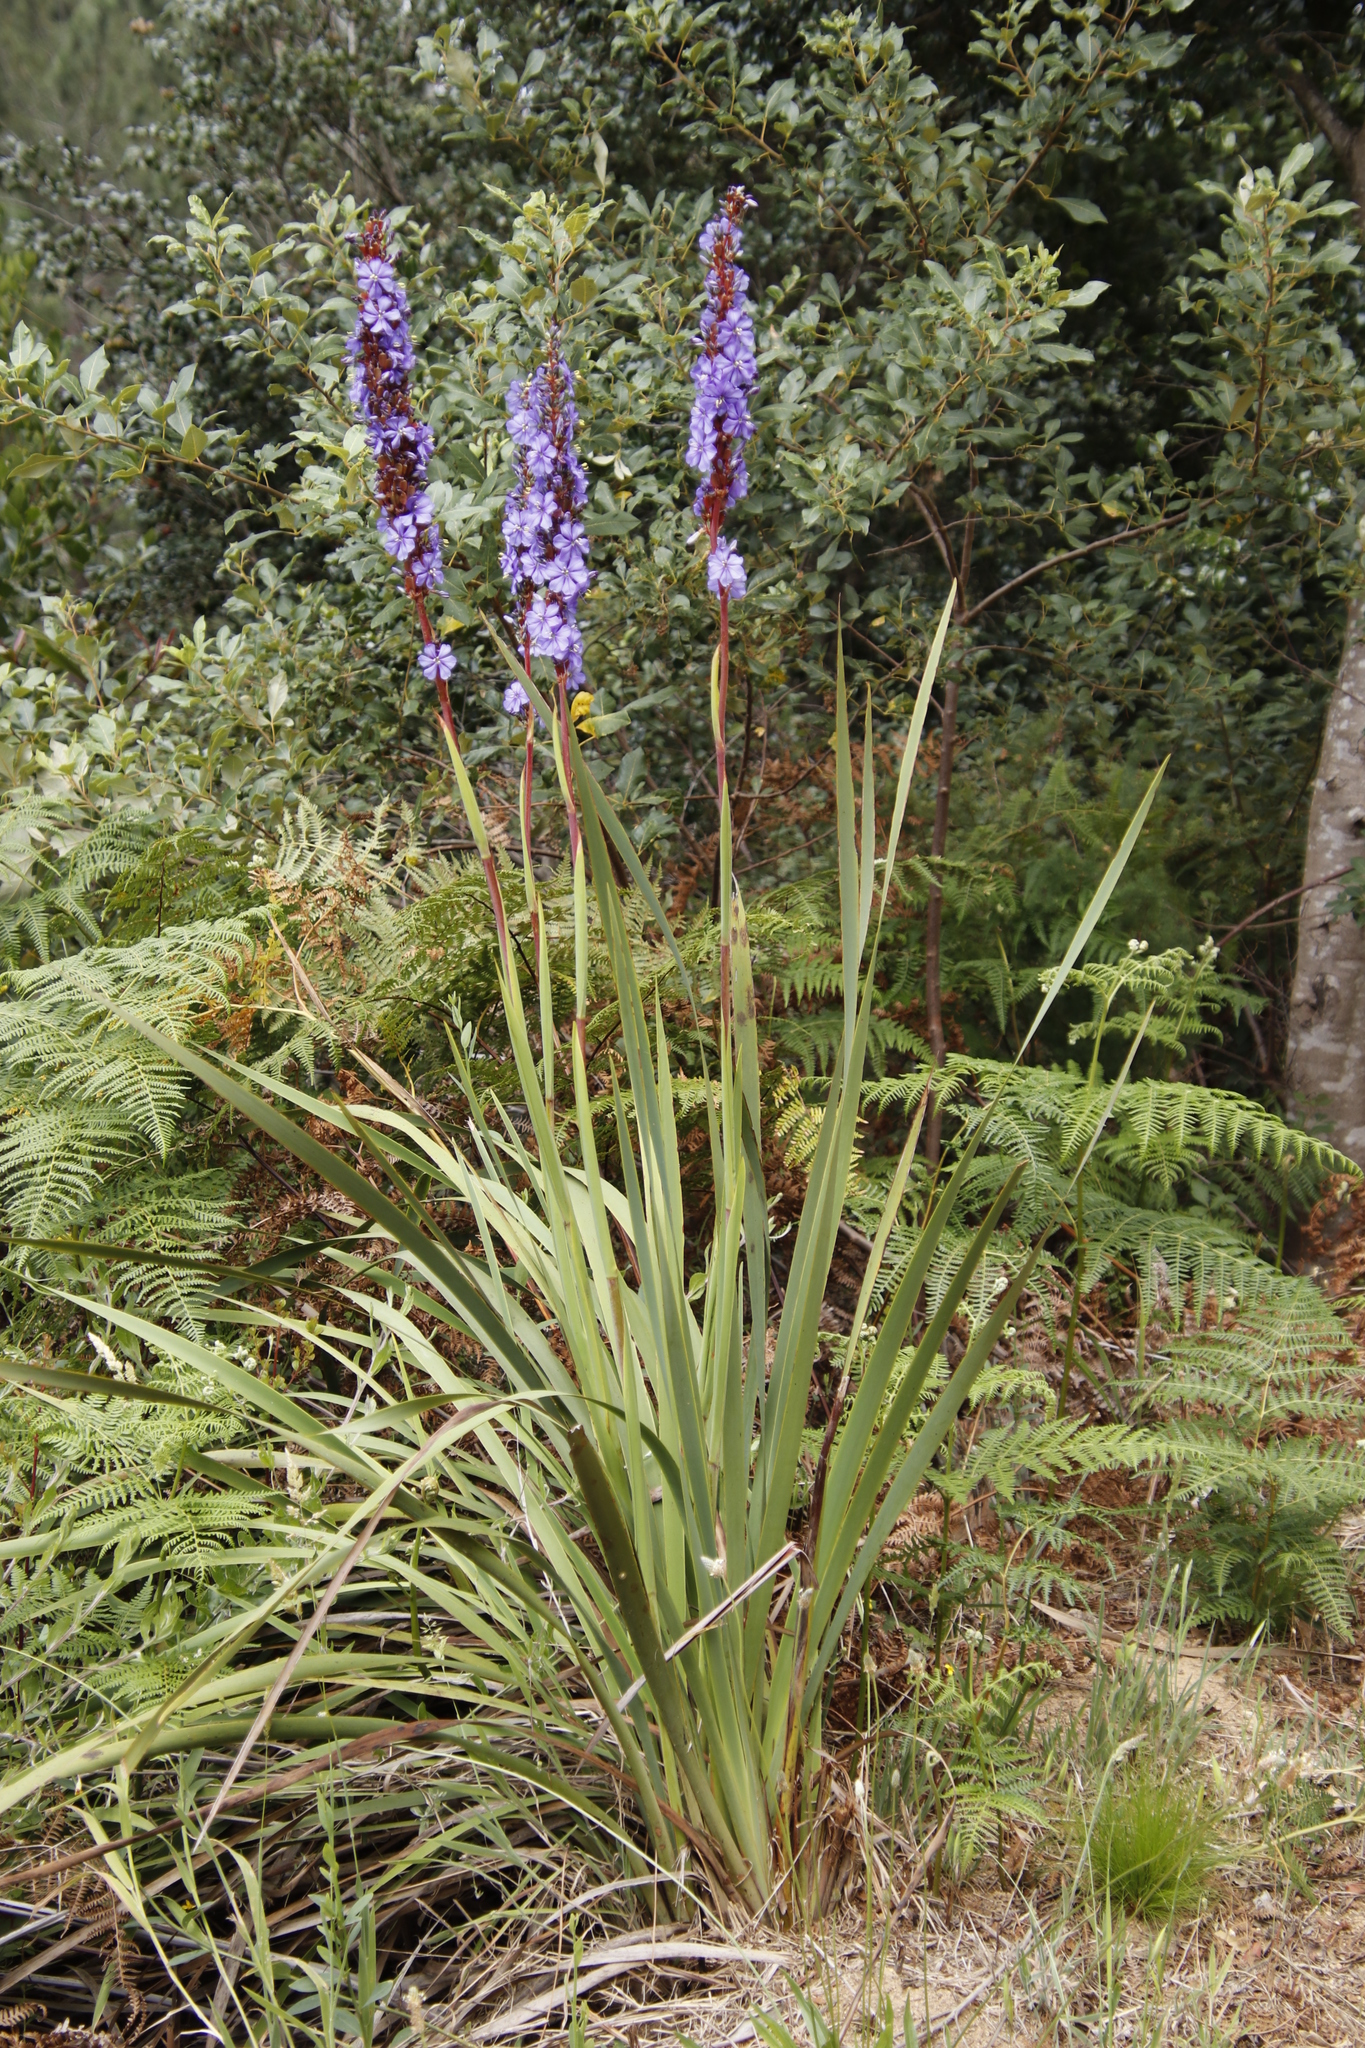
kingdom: Plantae
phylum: Tracheophyta
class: Liliopsida
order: Asparagales
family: Iridaceae
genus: Aristea
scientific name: Aristea capitata
